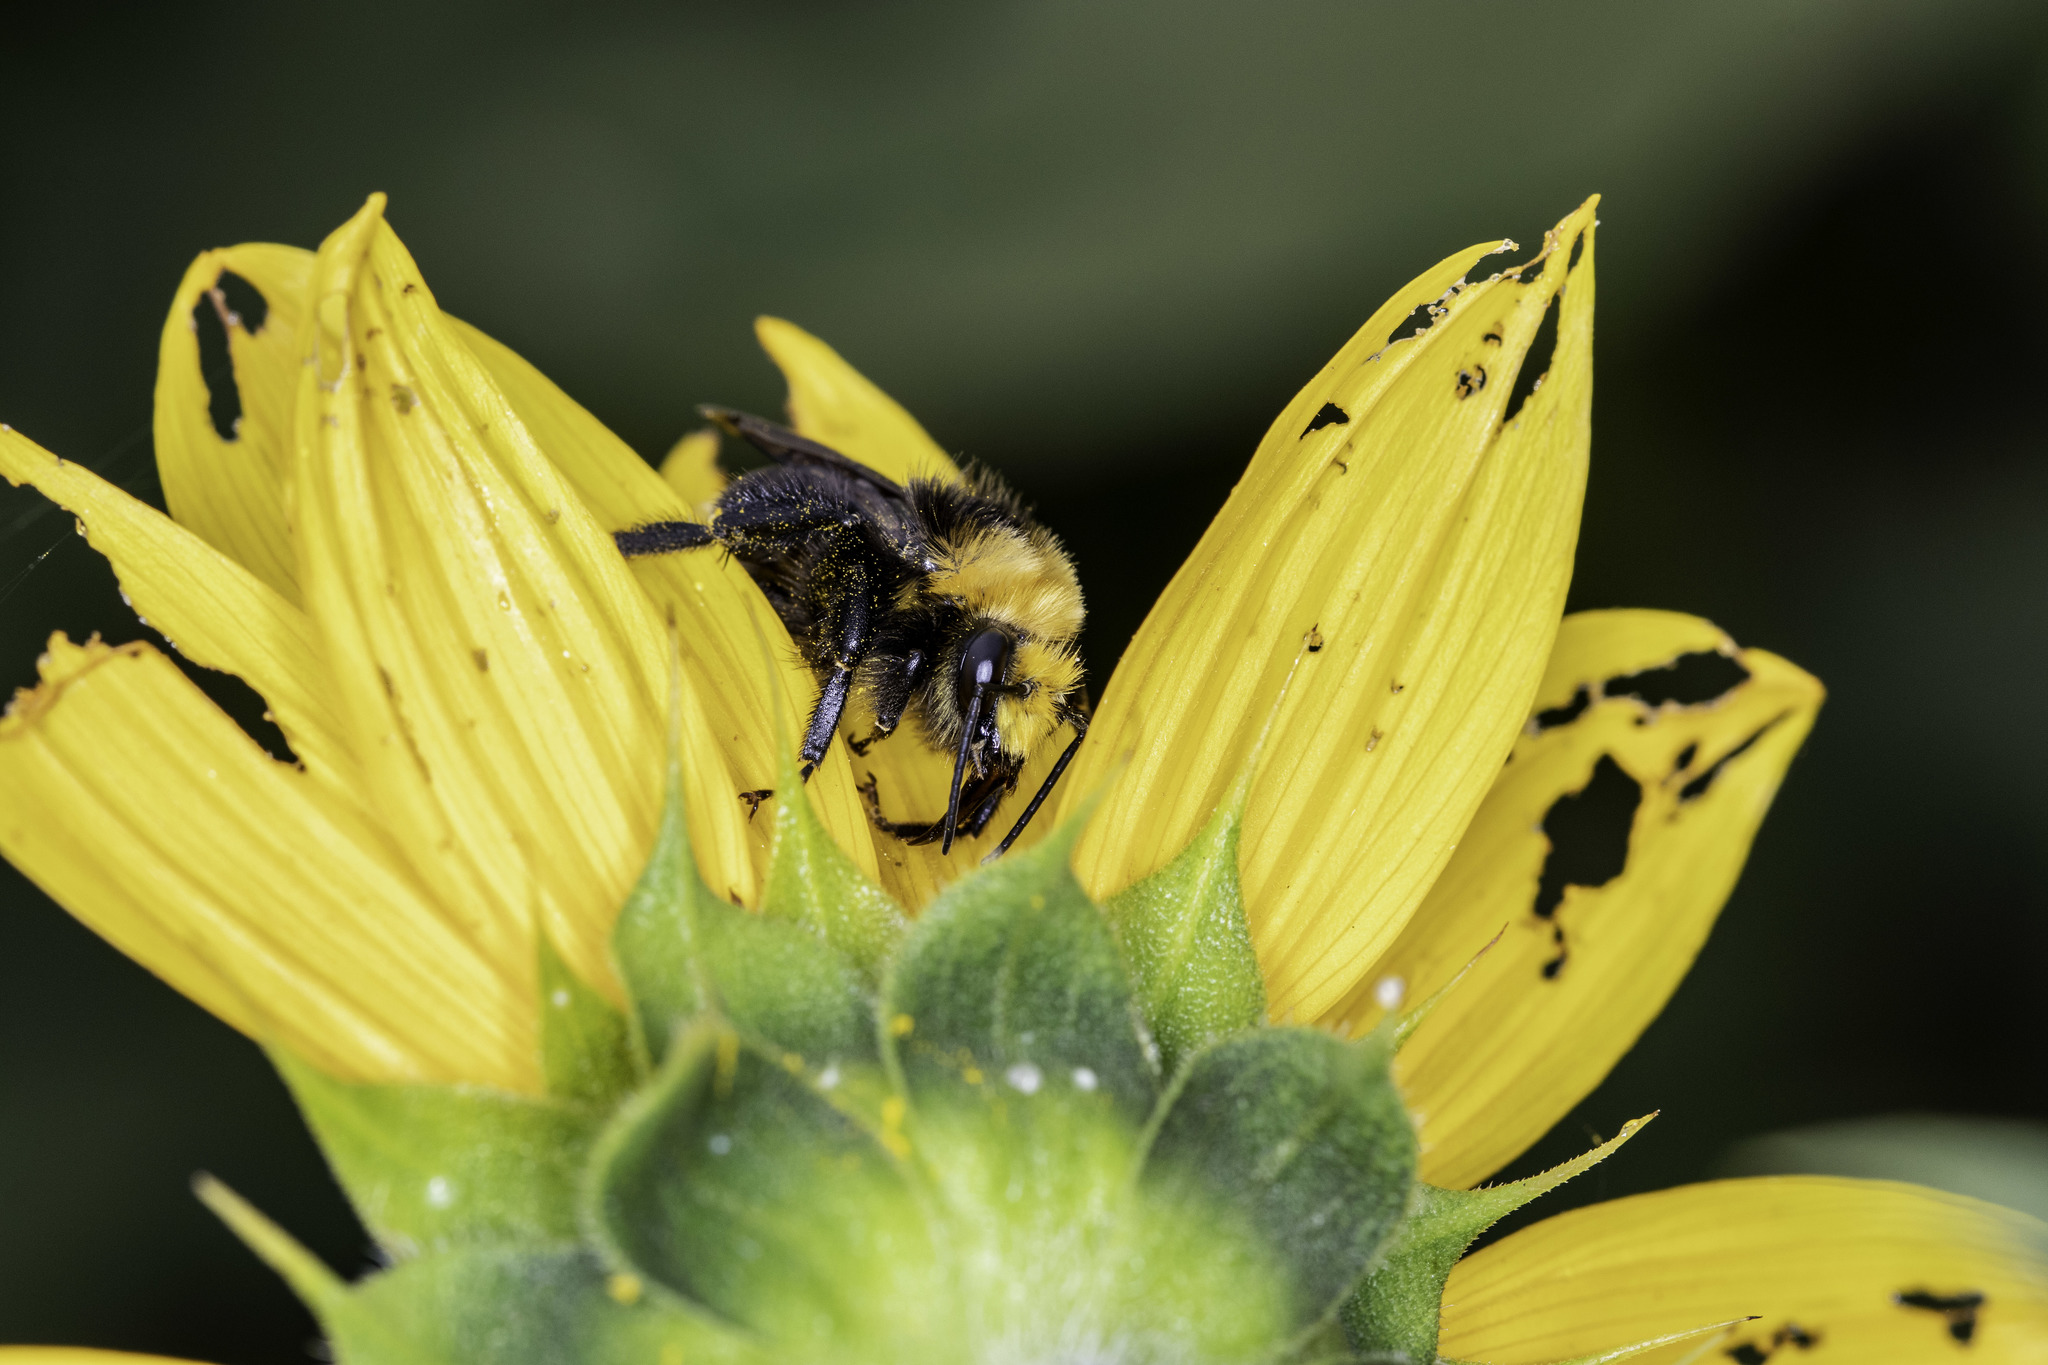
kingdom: Animalia
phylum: Arthropoda
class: Insecta
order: Hymenoptera
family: Apidae
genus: Bombus
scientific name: Bombus vosnesenskii
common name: Vosnesensky bumble bee
